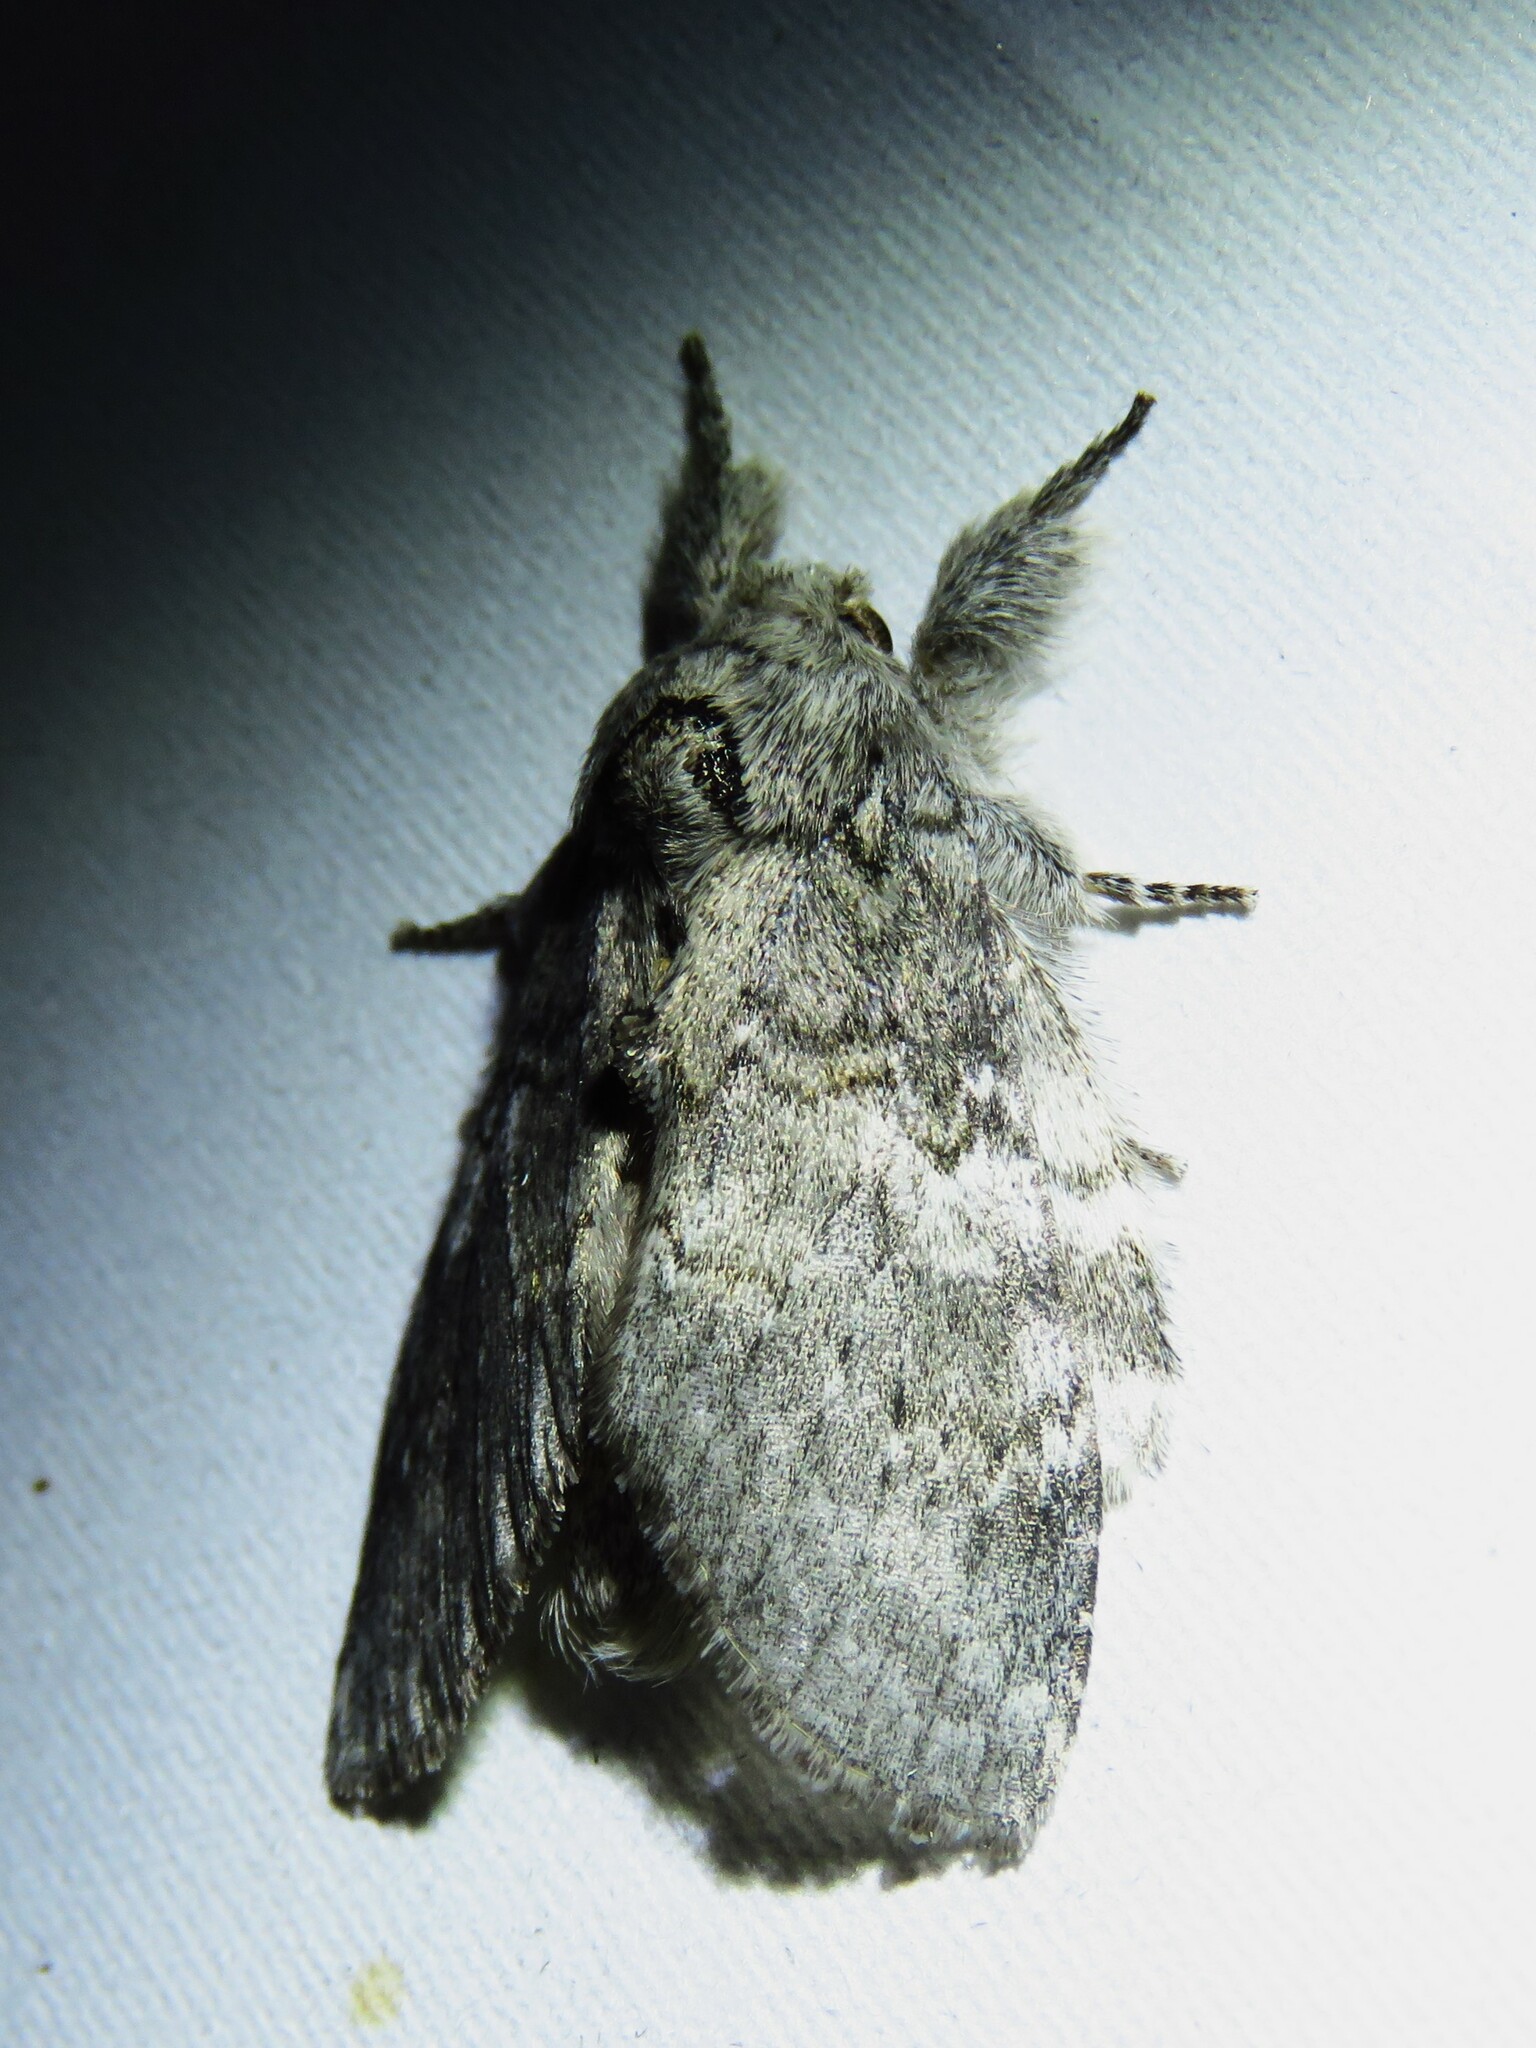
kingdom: Animalia
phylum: Arthropoda
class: Insecta
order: Lepidoptera
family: Notodontidae
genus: Peridea
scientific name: Peridea angulosa
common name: Angulose prominent
